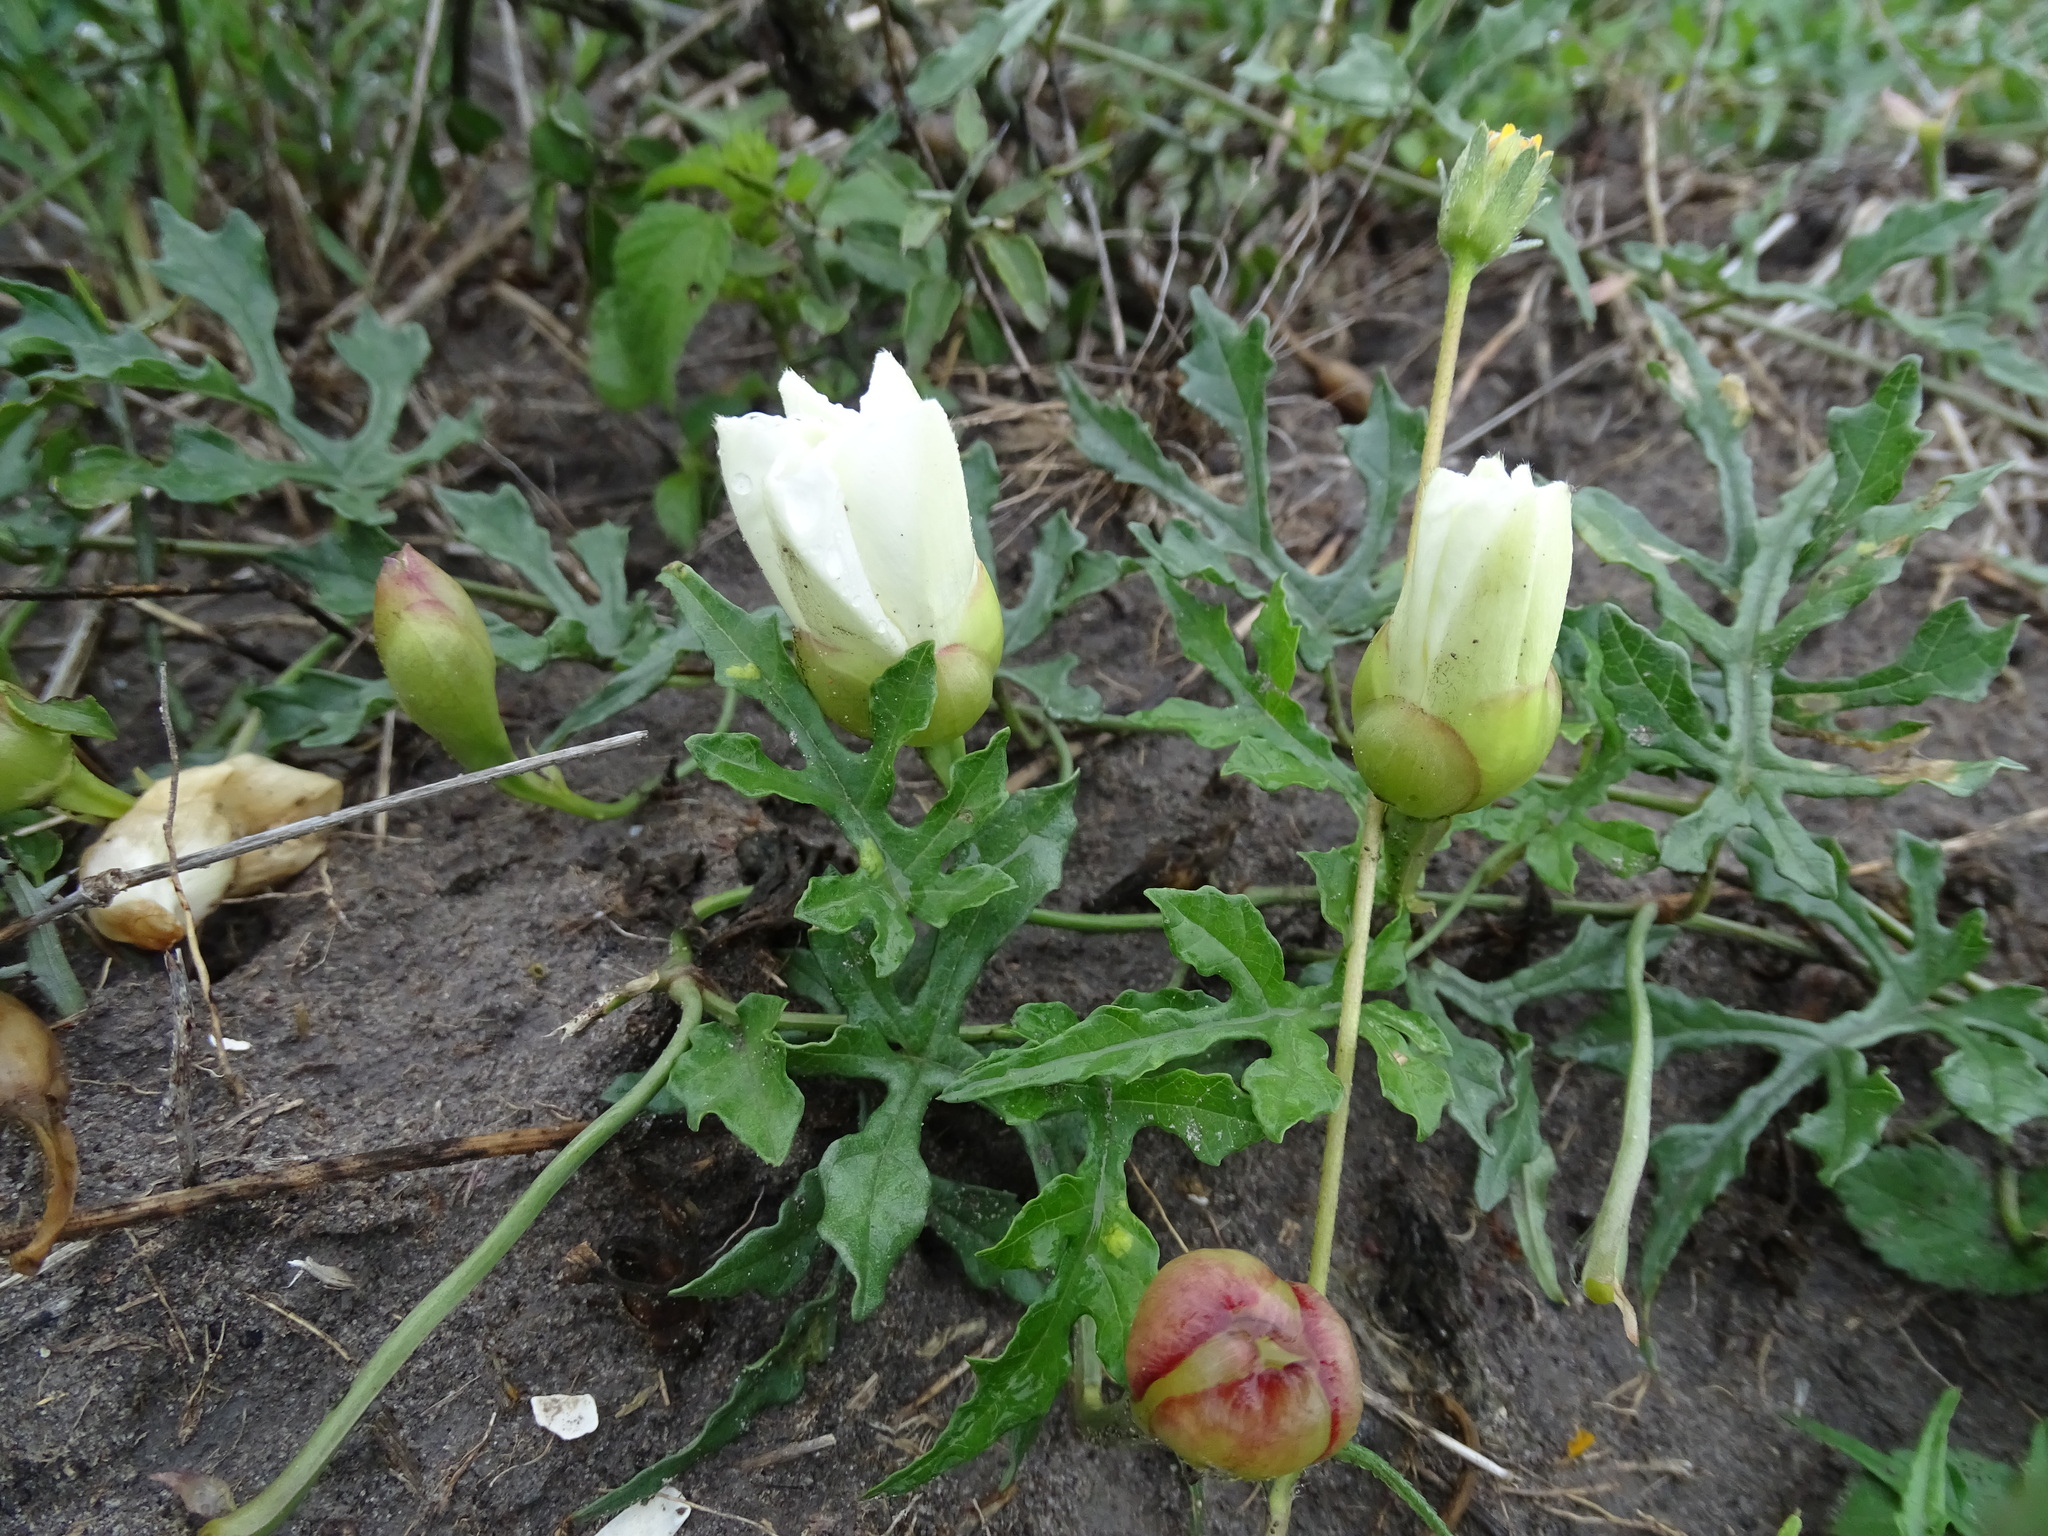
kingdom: Plantae
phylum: Tracheophyta
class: Magnoliopsida
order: Solanales
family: Convolvulaceae
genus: Operculina
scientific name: Operculina pinnatifida
